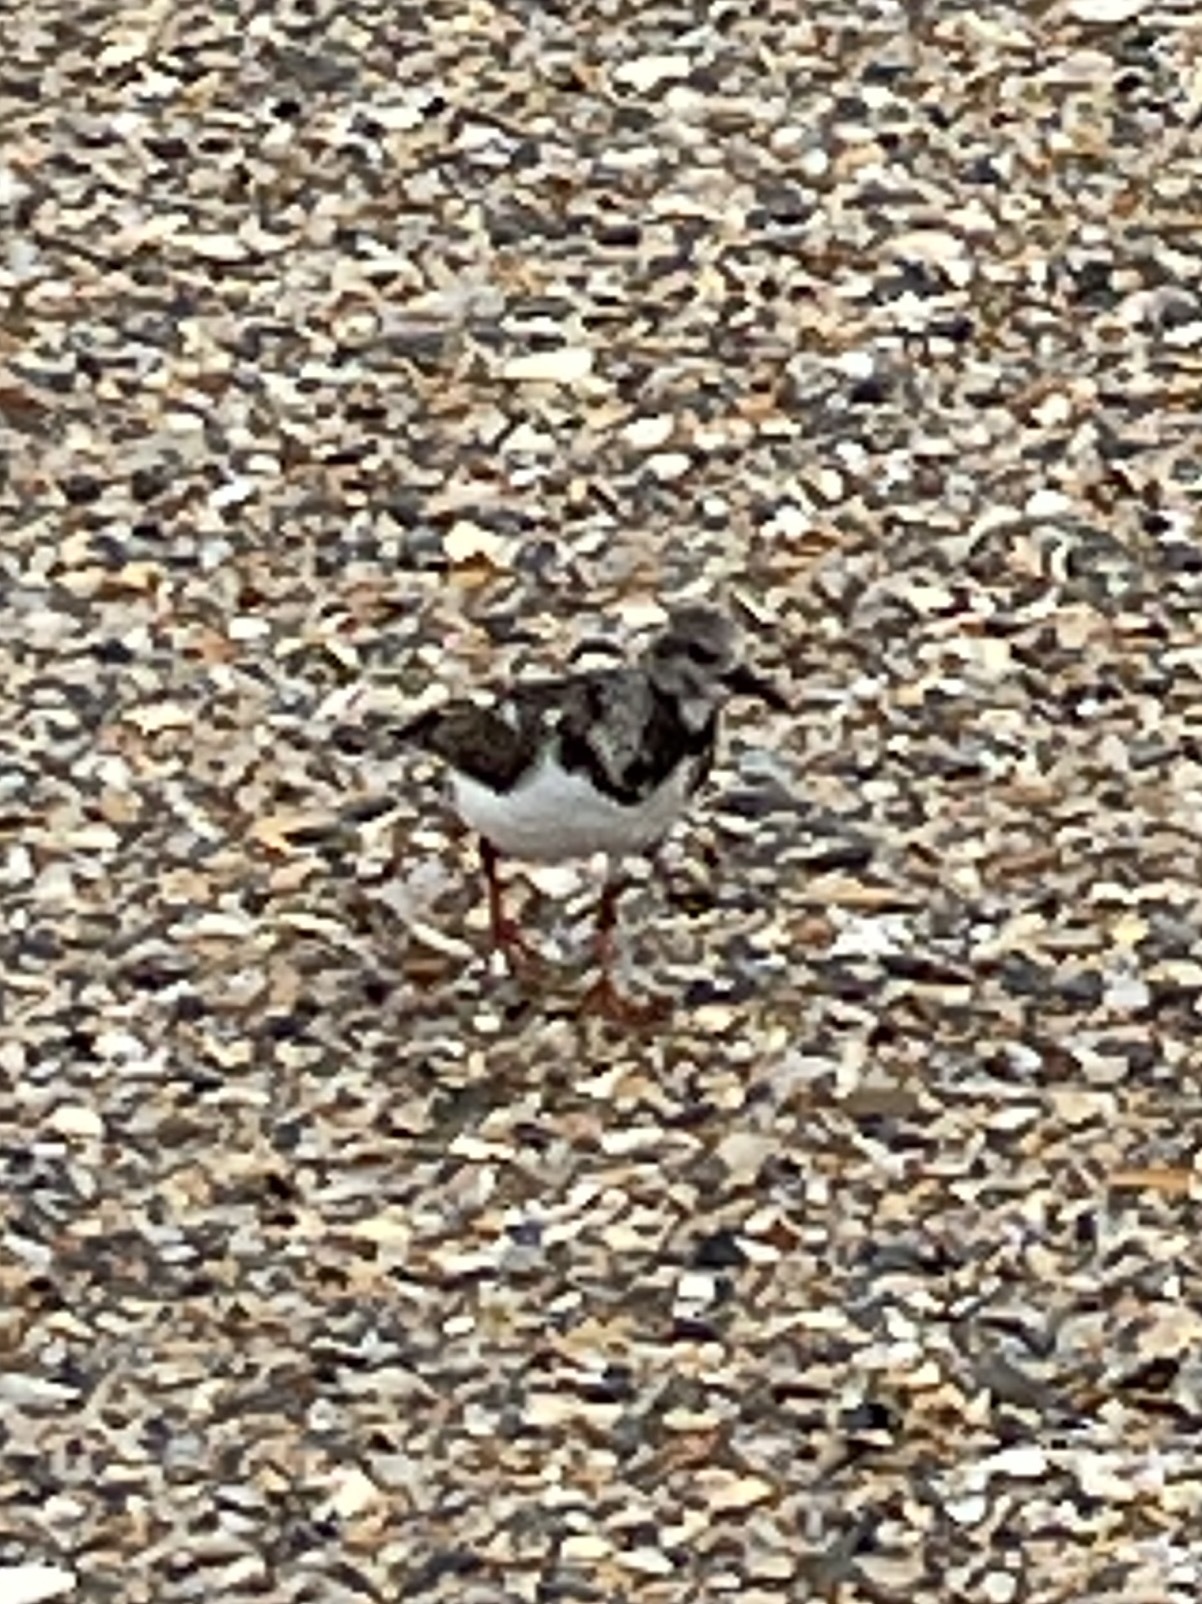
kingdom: Animalia
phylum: Chordata
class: Aves
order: Charadriiformes
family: Scolopacidae
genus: Arenaria
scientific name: Arenaria interpres
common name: Ruddy turnstone
